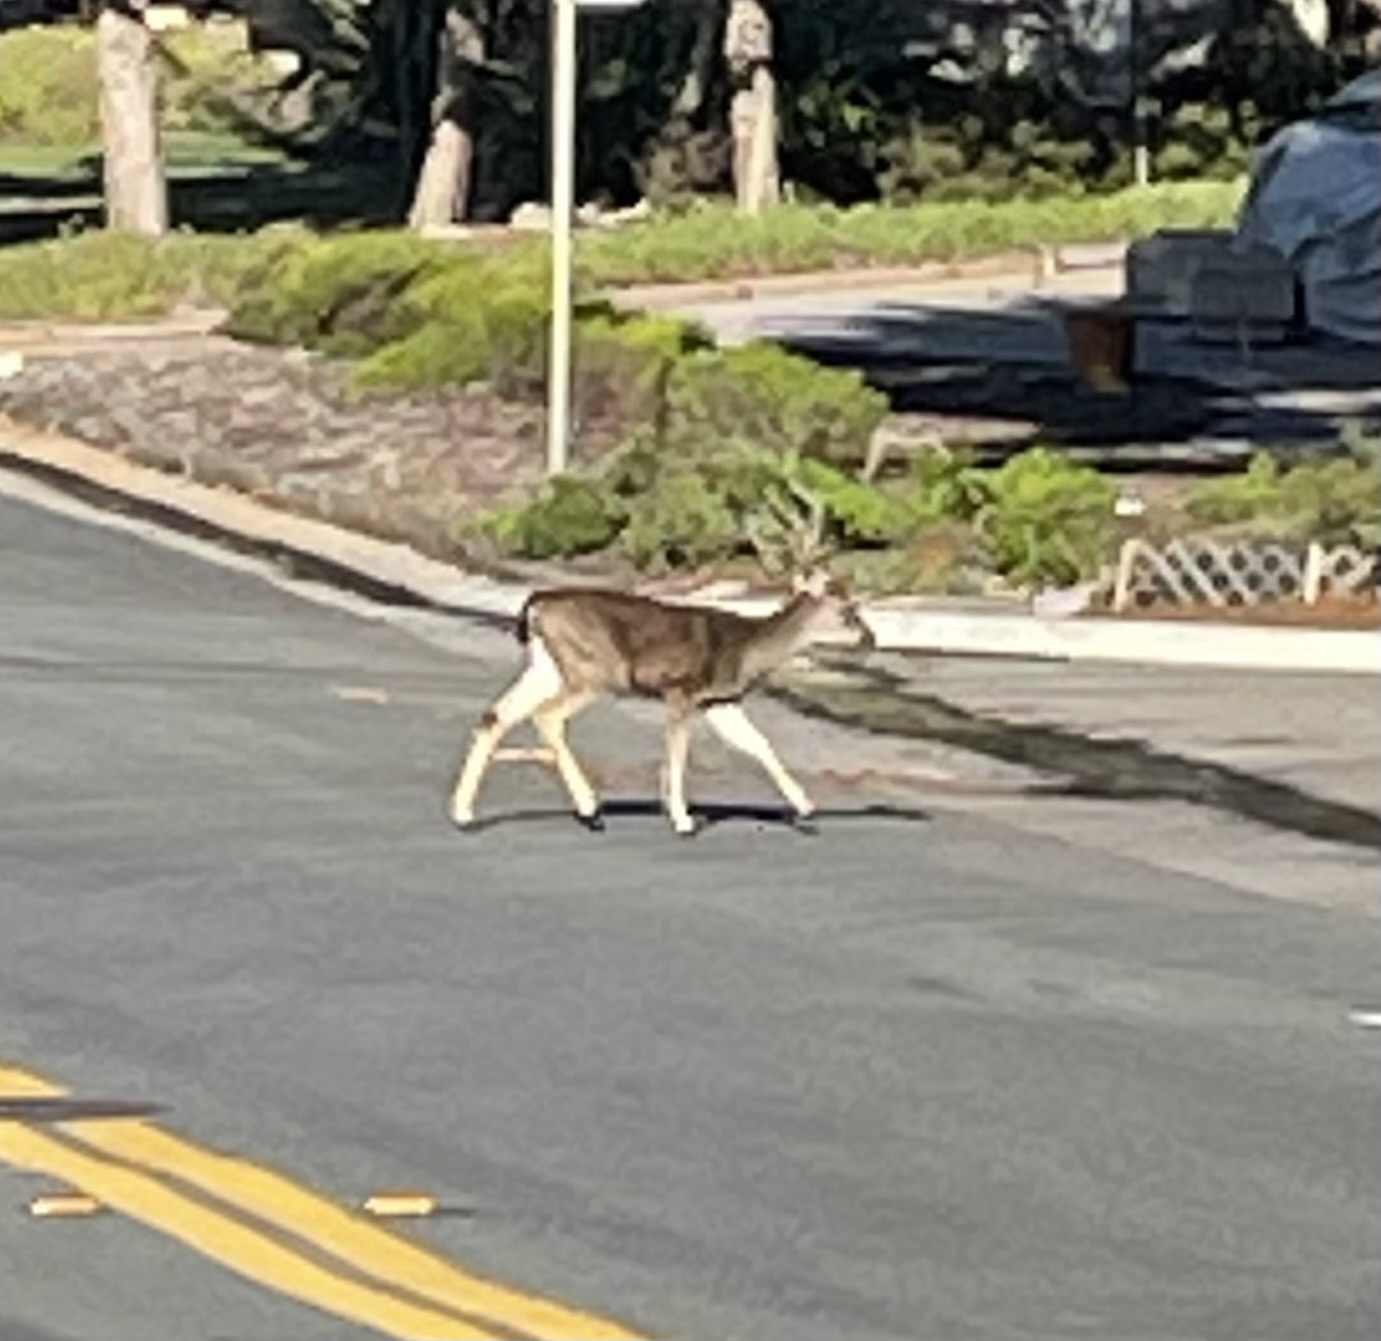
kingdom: Animalia
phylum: Chordata
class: Mammalia
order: Artiodactyla
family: Cervidae
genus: Odocoileus
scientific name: Odocoileus hemionus
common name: Mule deer
